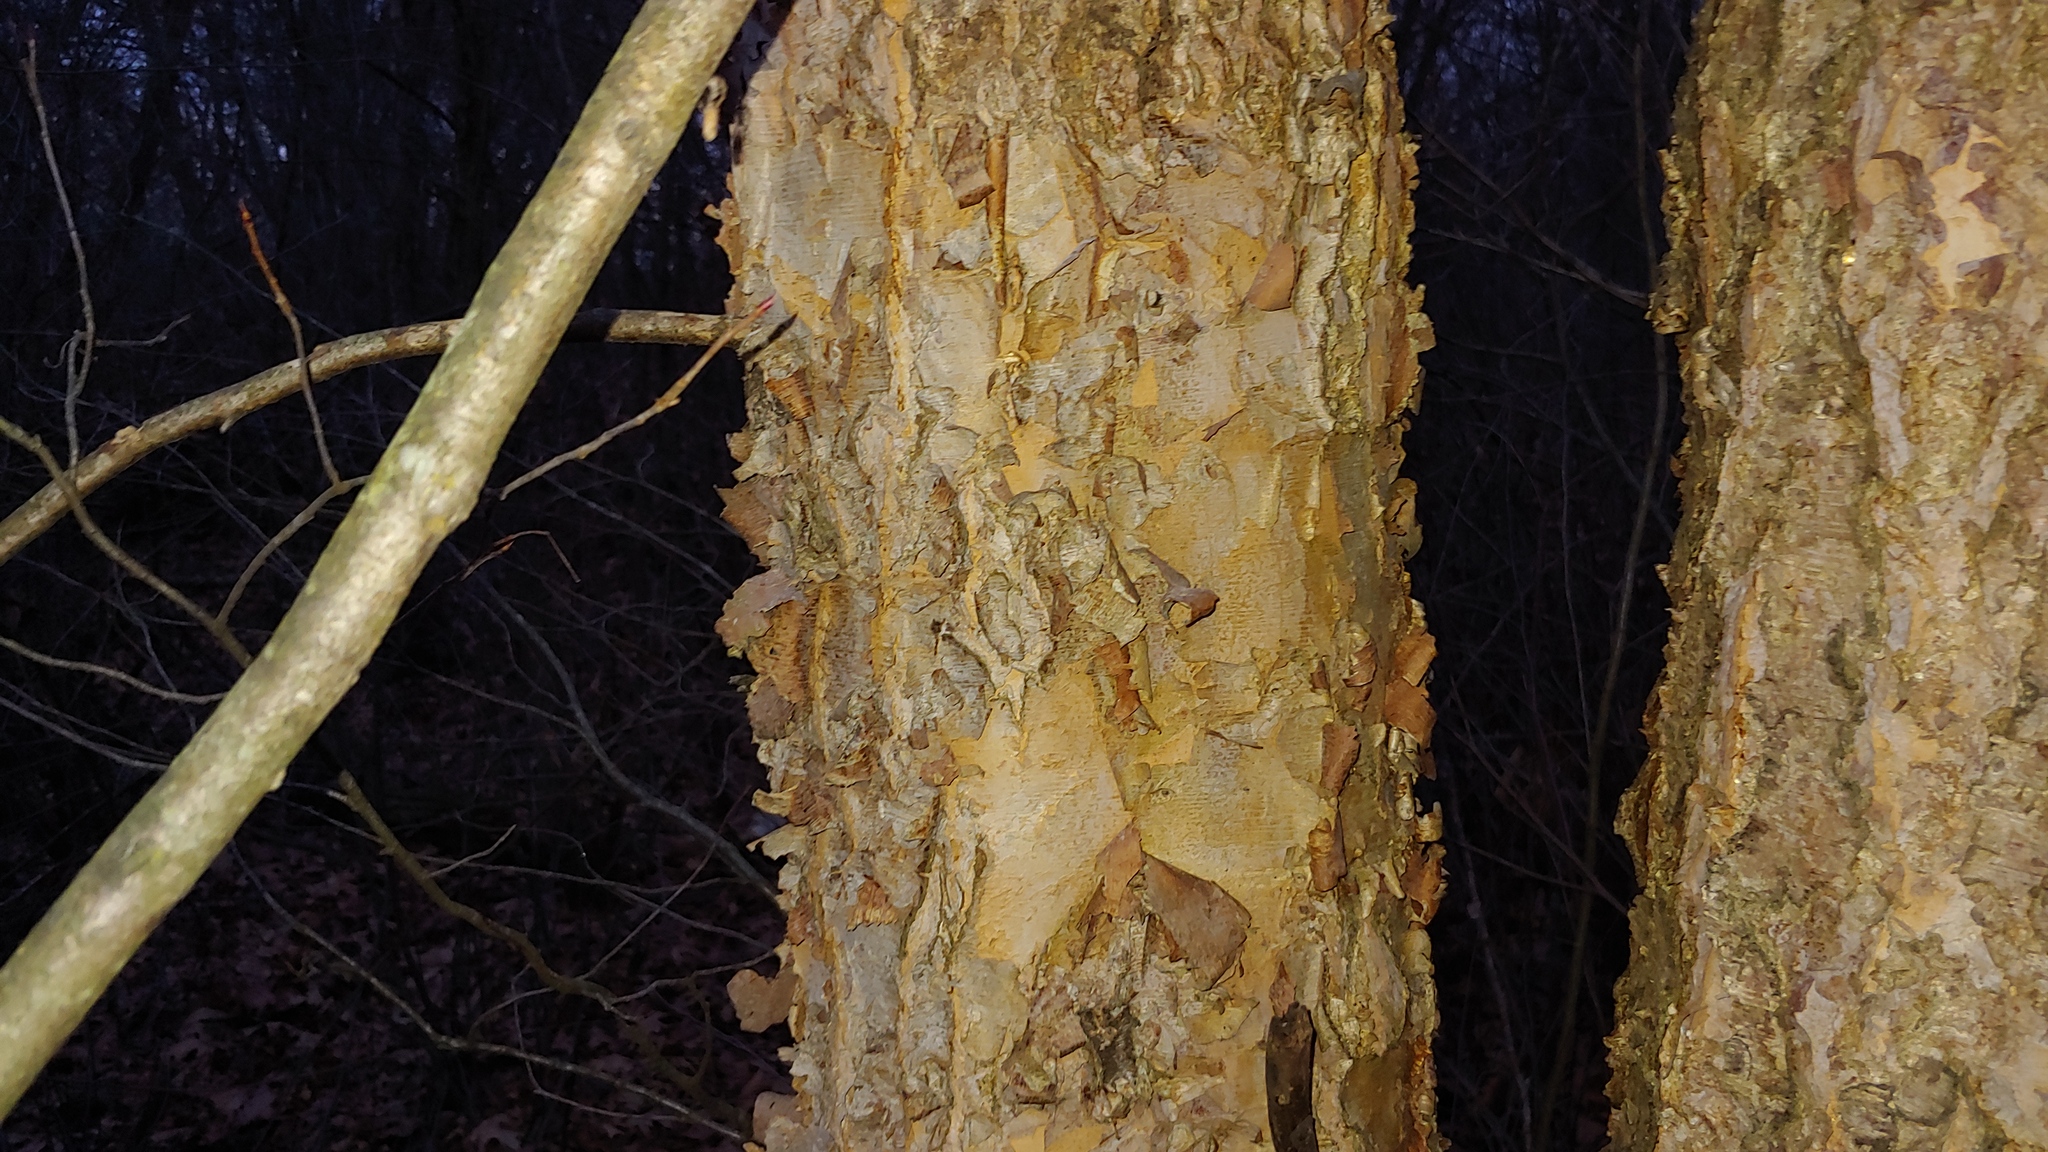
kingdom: Plantae
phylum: Tracheophyta
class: Magnoliopsida
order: Fagales
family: Betulaceae
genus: Betula
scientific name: Betula nigra
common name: Black birch
